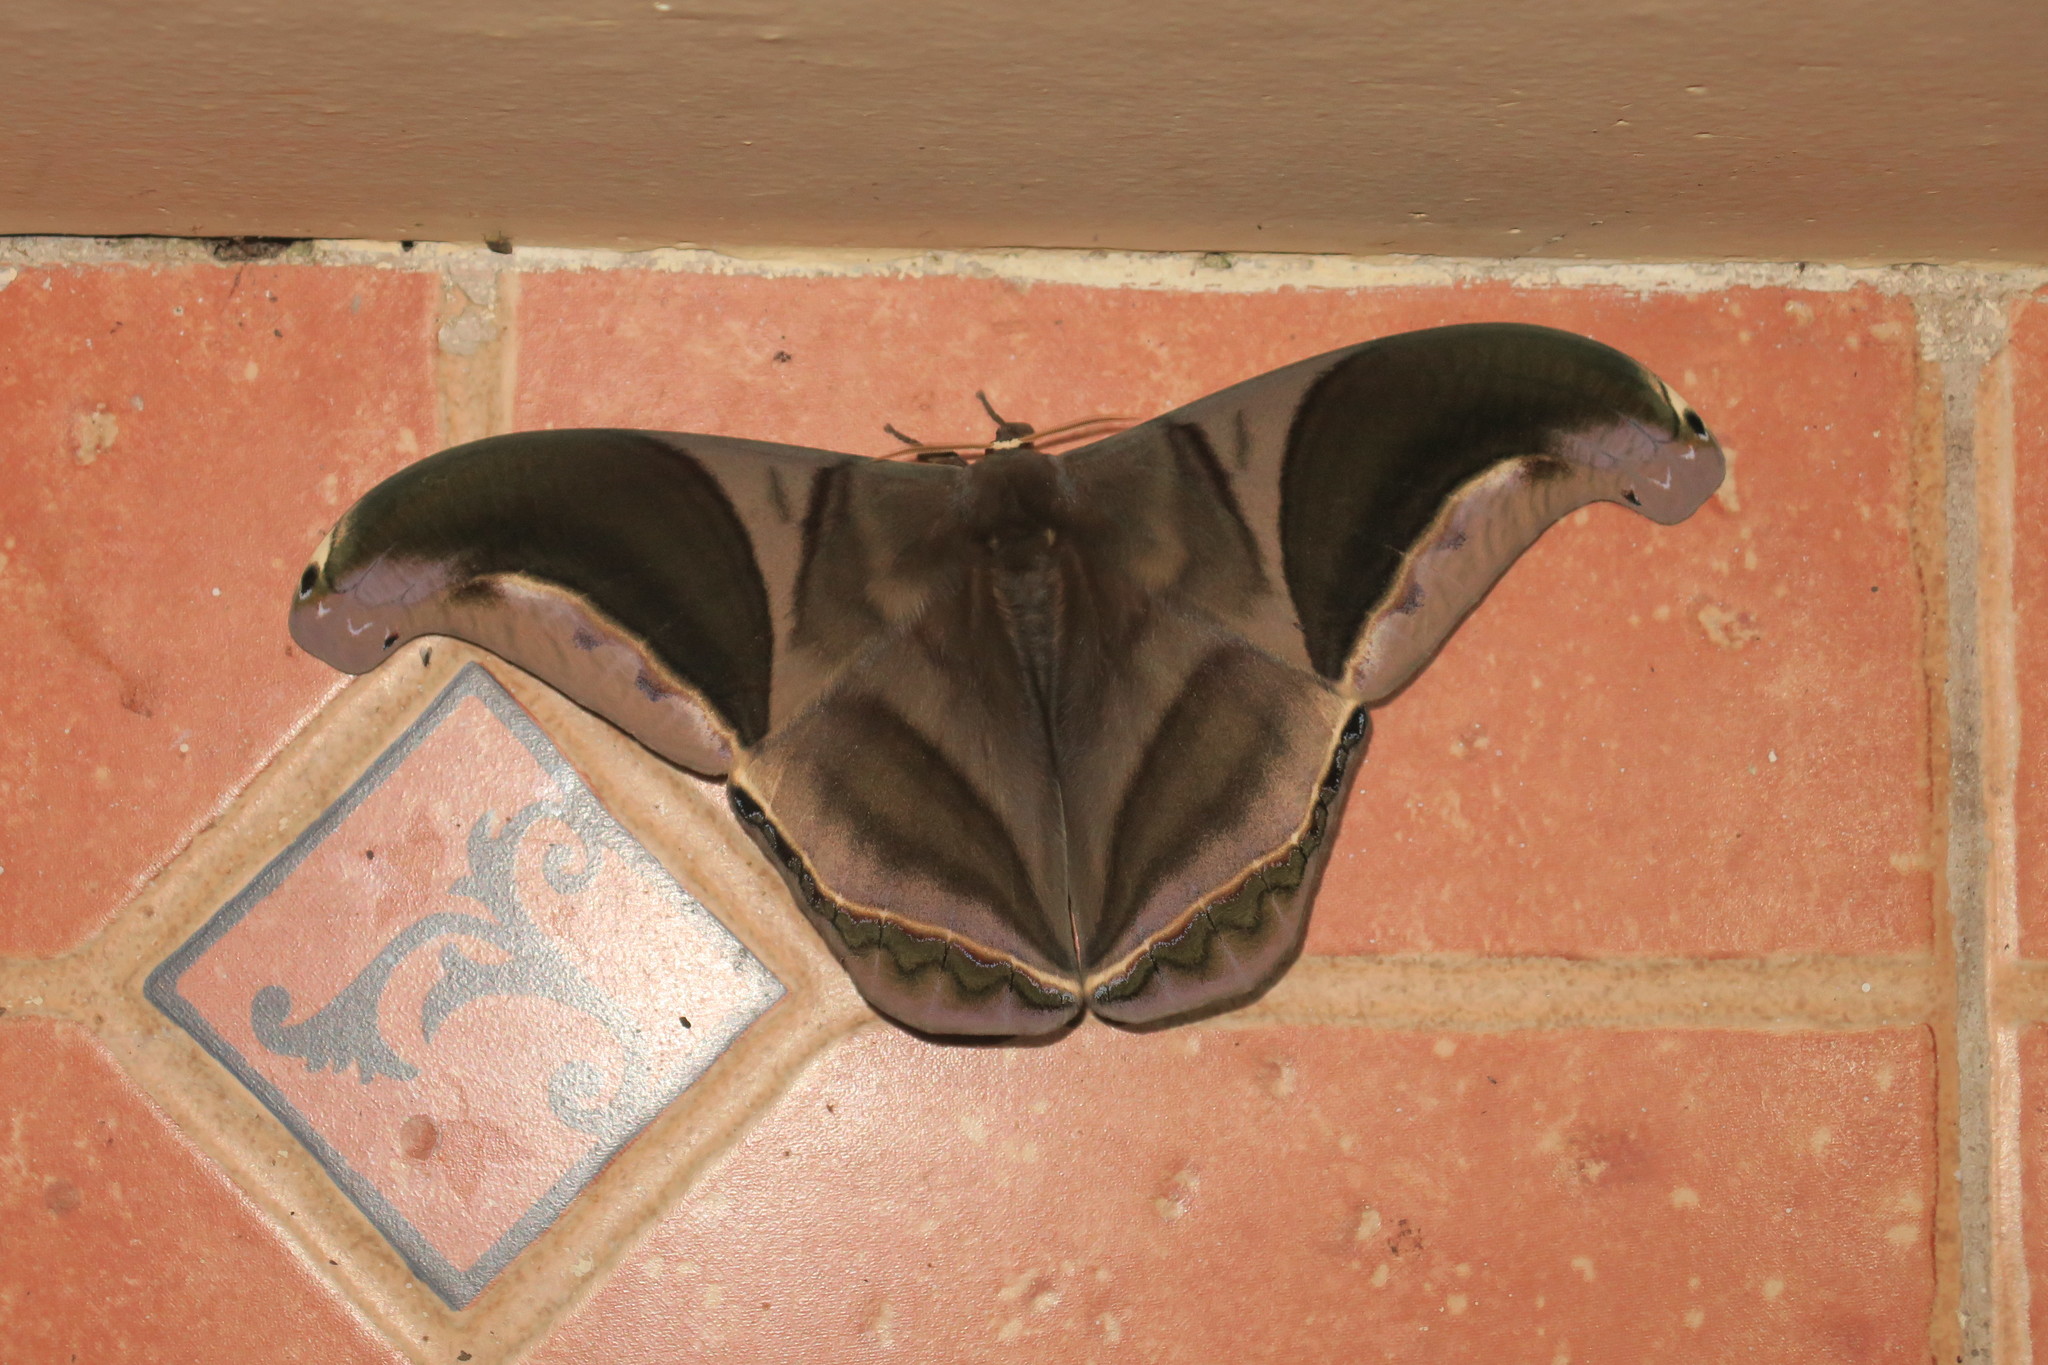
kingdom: Animalia
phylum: Arthropoda
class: Insecta
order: Lepidoptera
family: Saturniidae
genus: Rhescyntis
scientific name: Rhescyntis hippodamia
